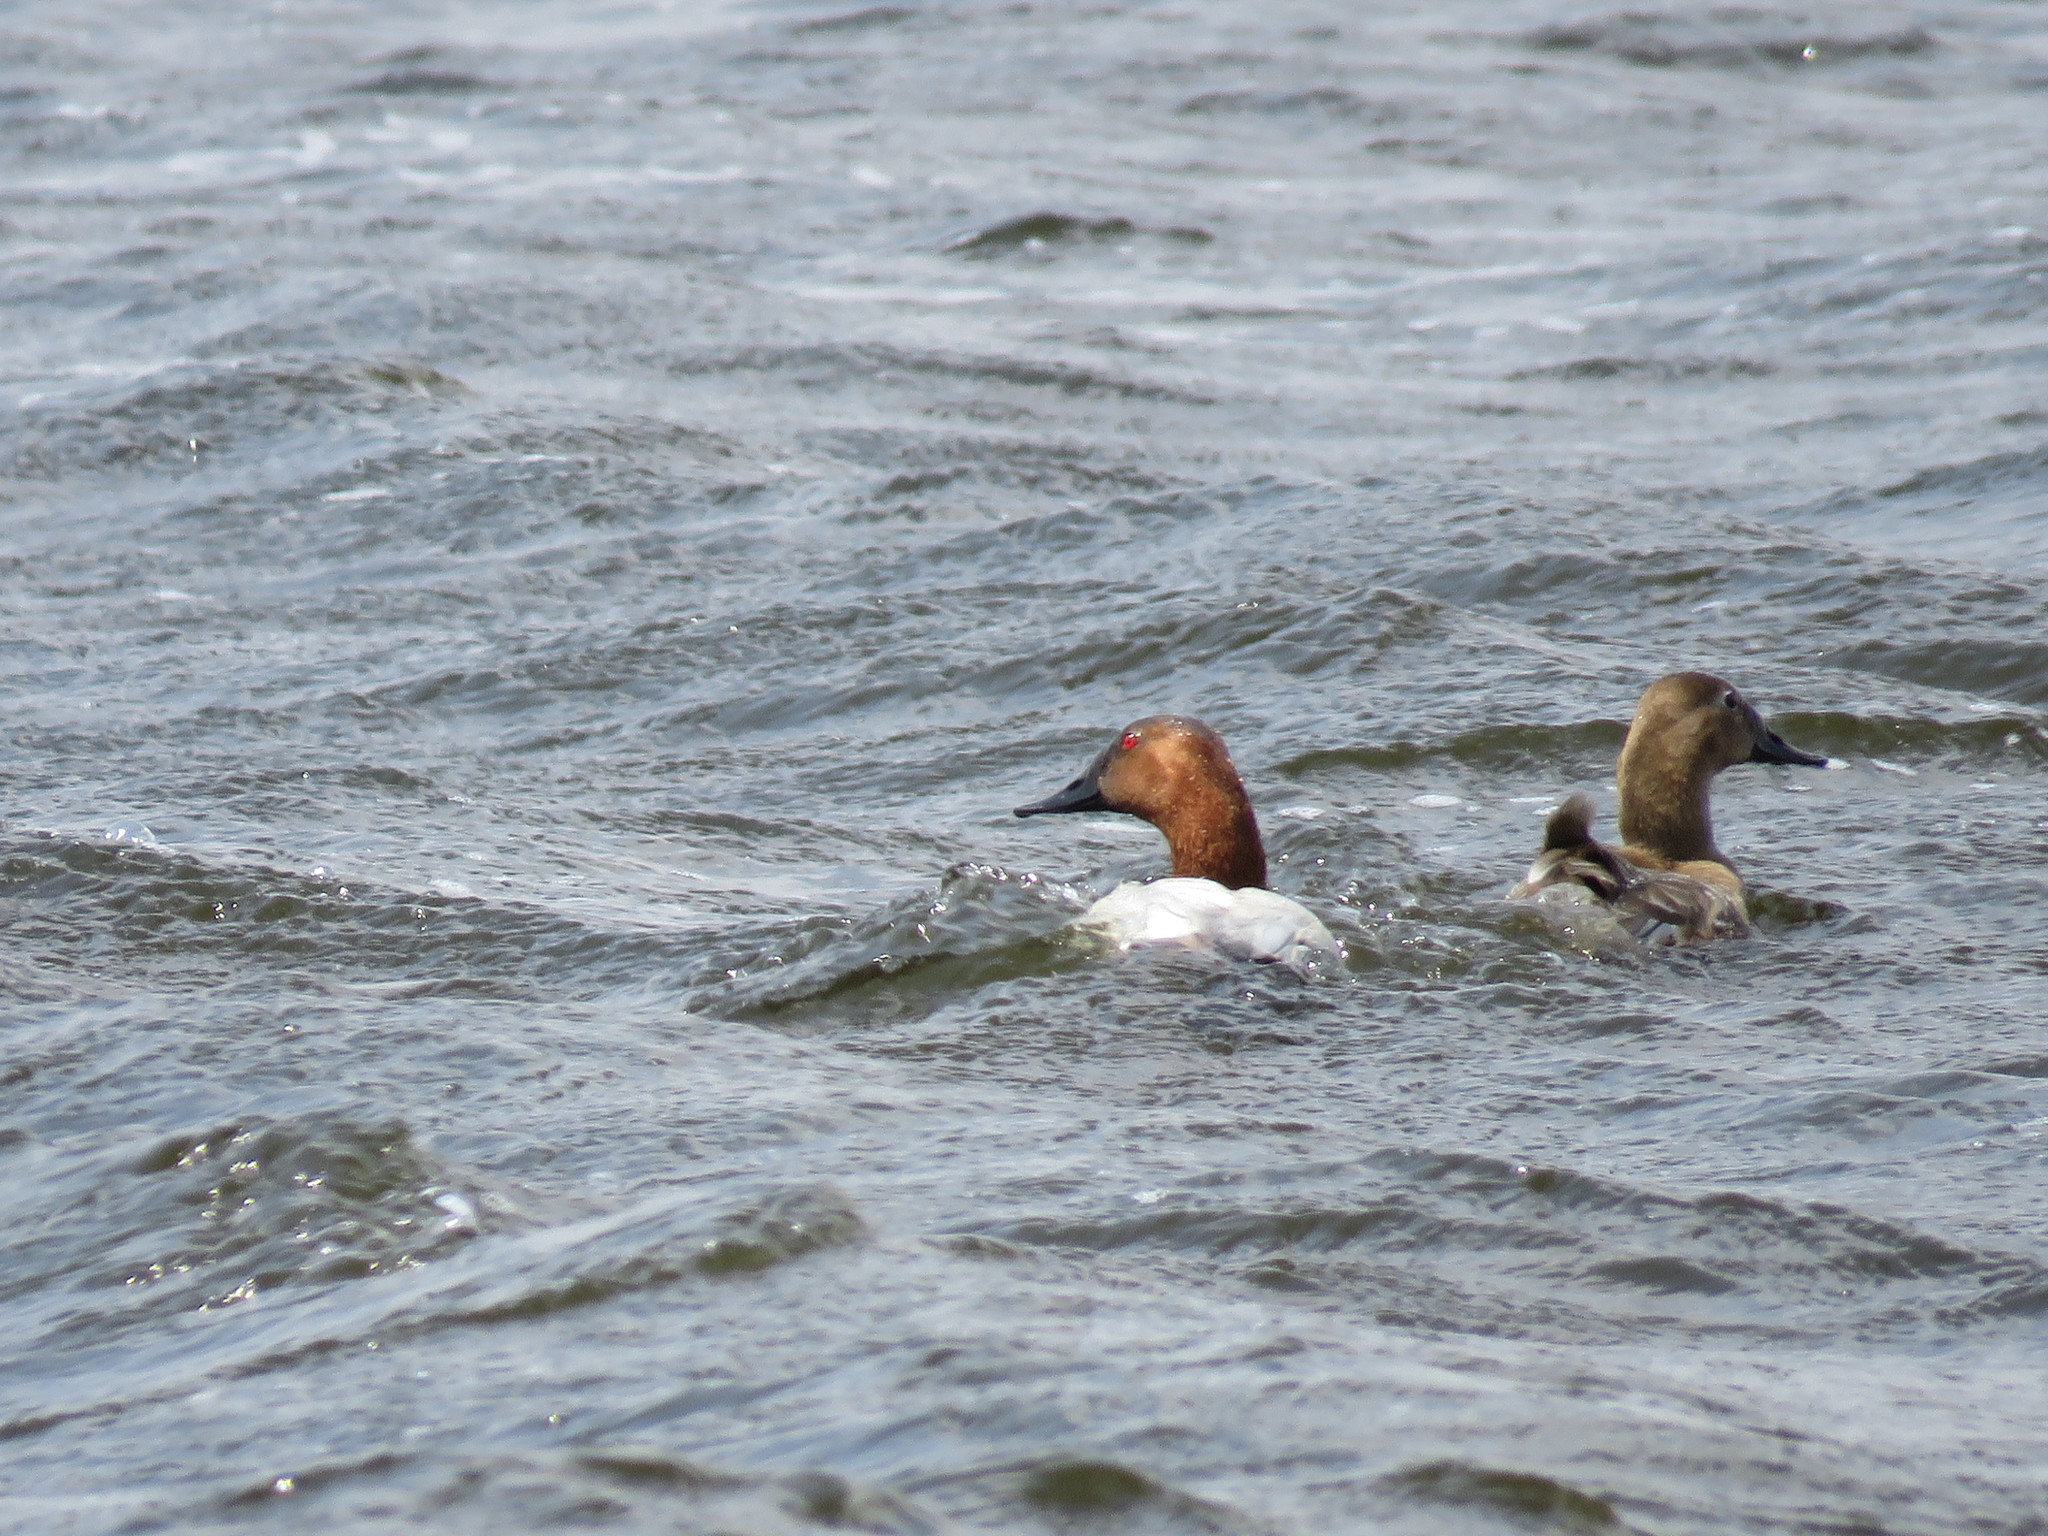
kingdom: Animalia
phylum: Chordata
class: Aves
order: Anseriformes
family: Anatidae
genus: Aythya
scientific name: Aythya valisineria
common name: Canvasback
